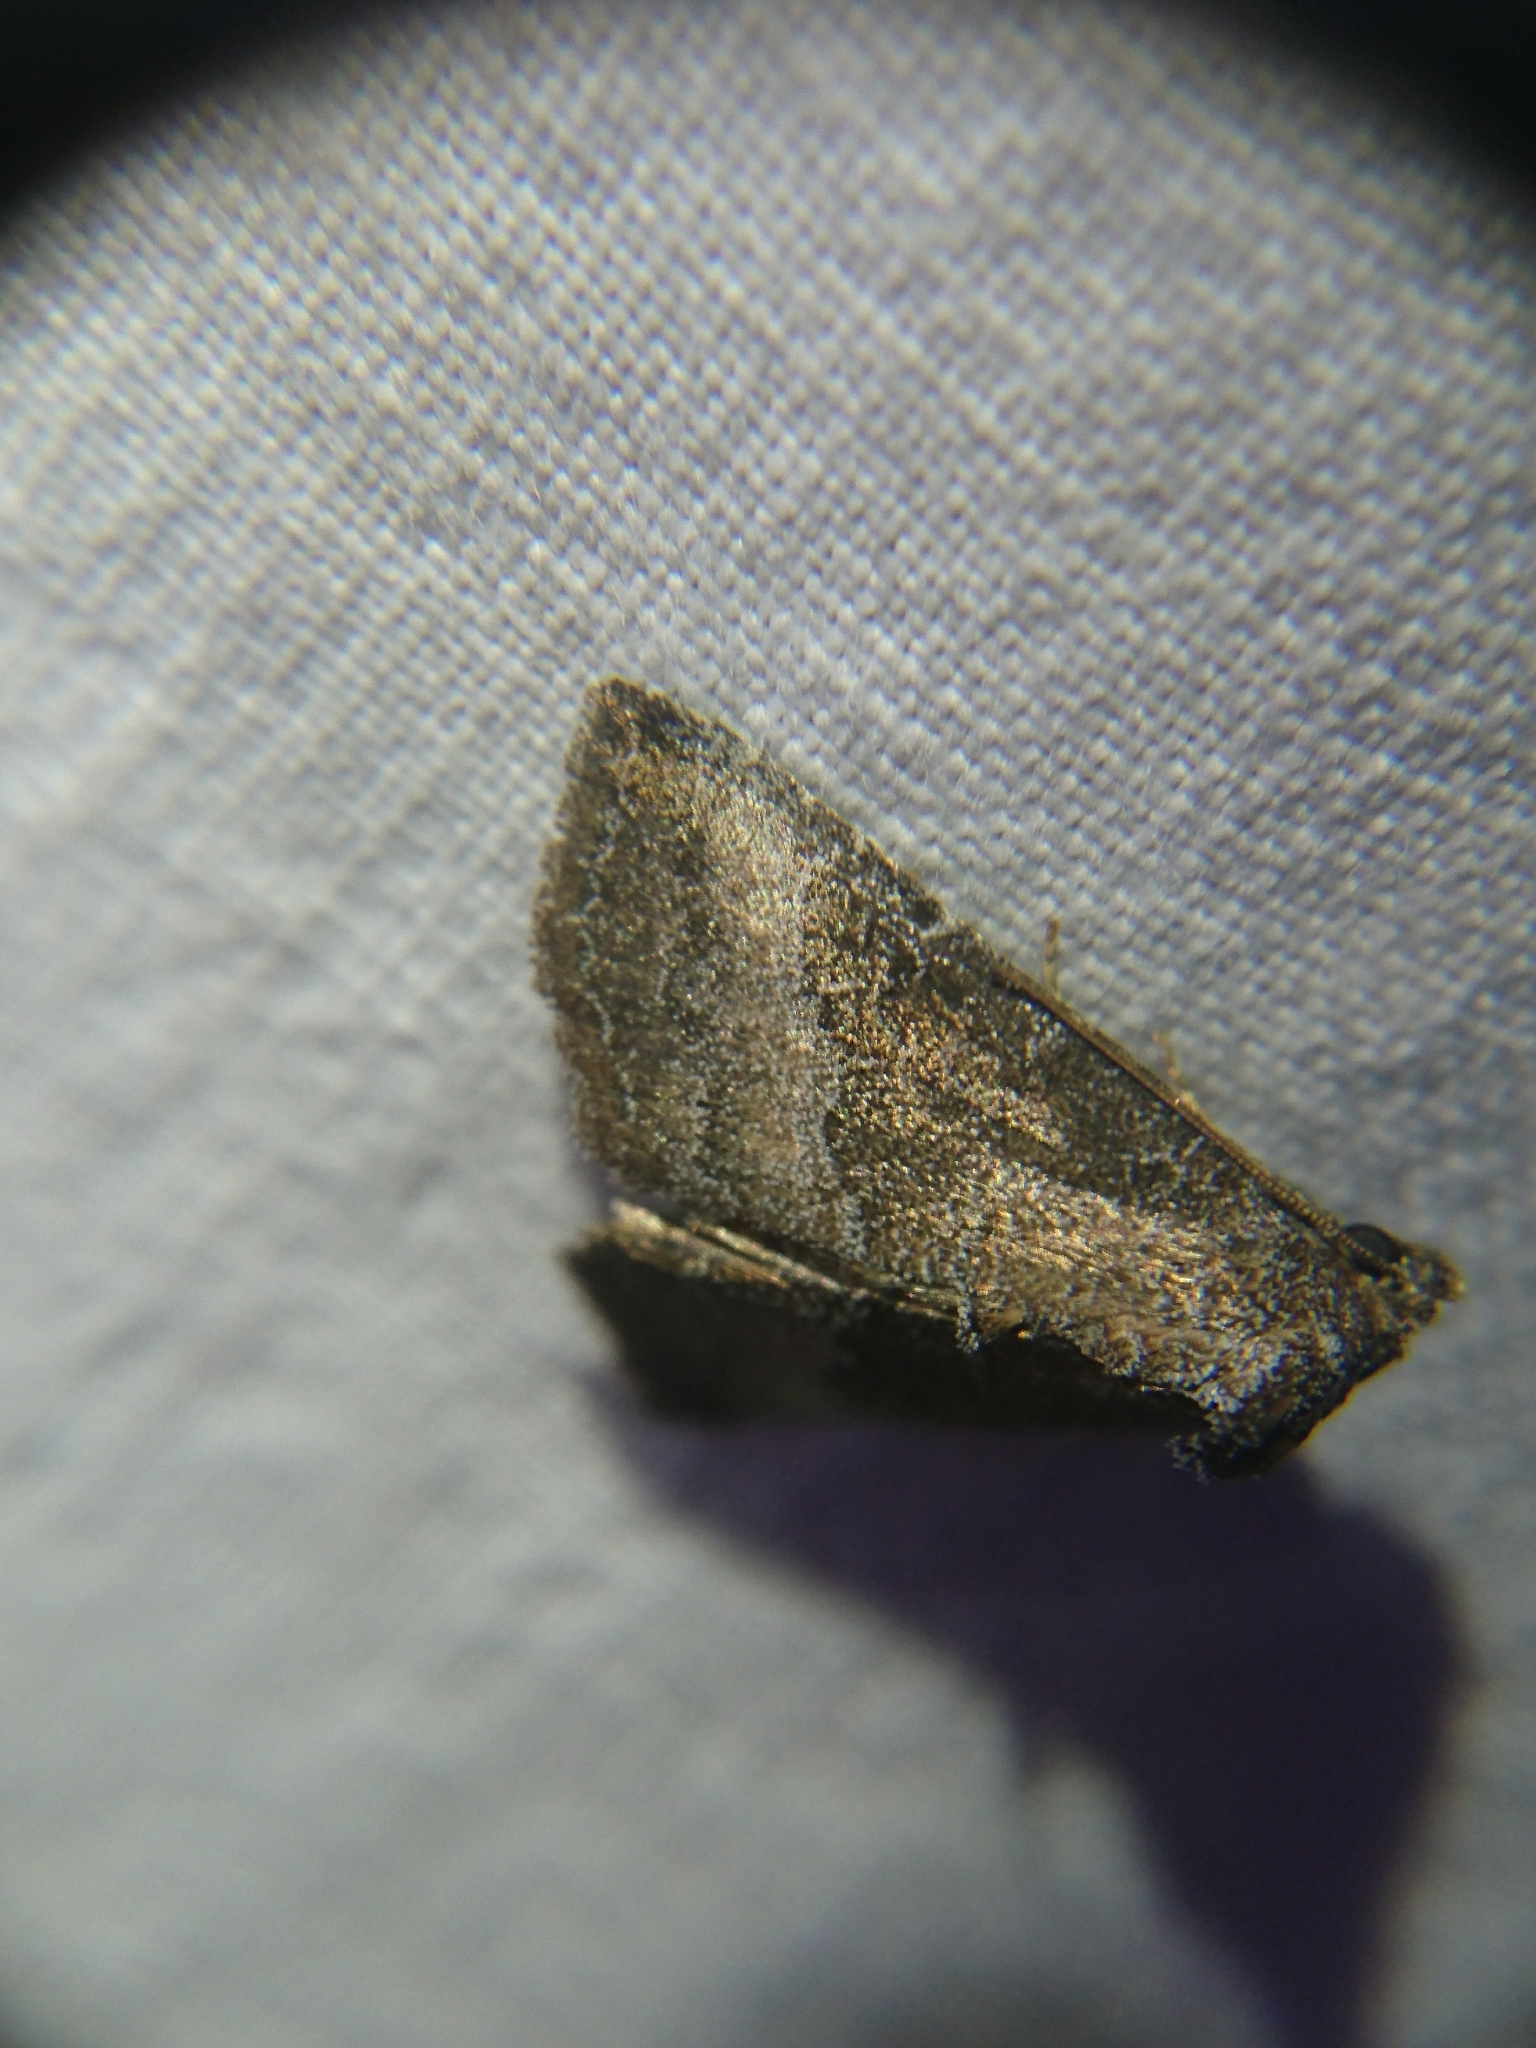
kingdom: Animalia
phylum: Arthropoda
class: Insecta
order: Lepidoptera
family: Noctuidae
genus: Ogdoconta
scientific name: Ogdoconta cinereola
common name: Common pinkband
